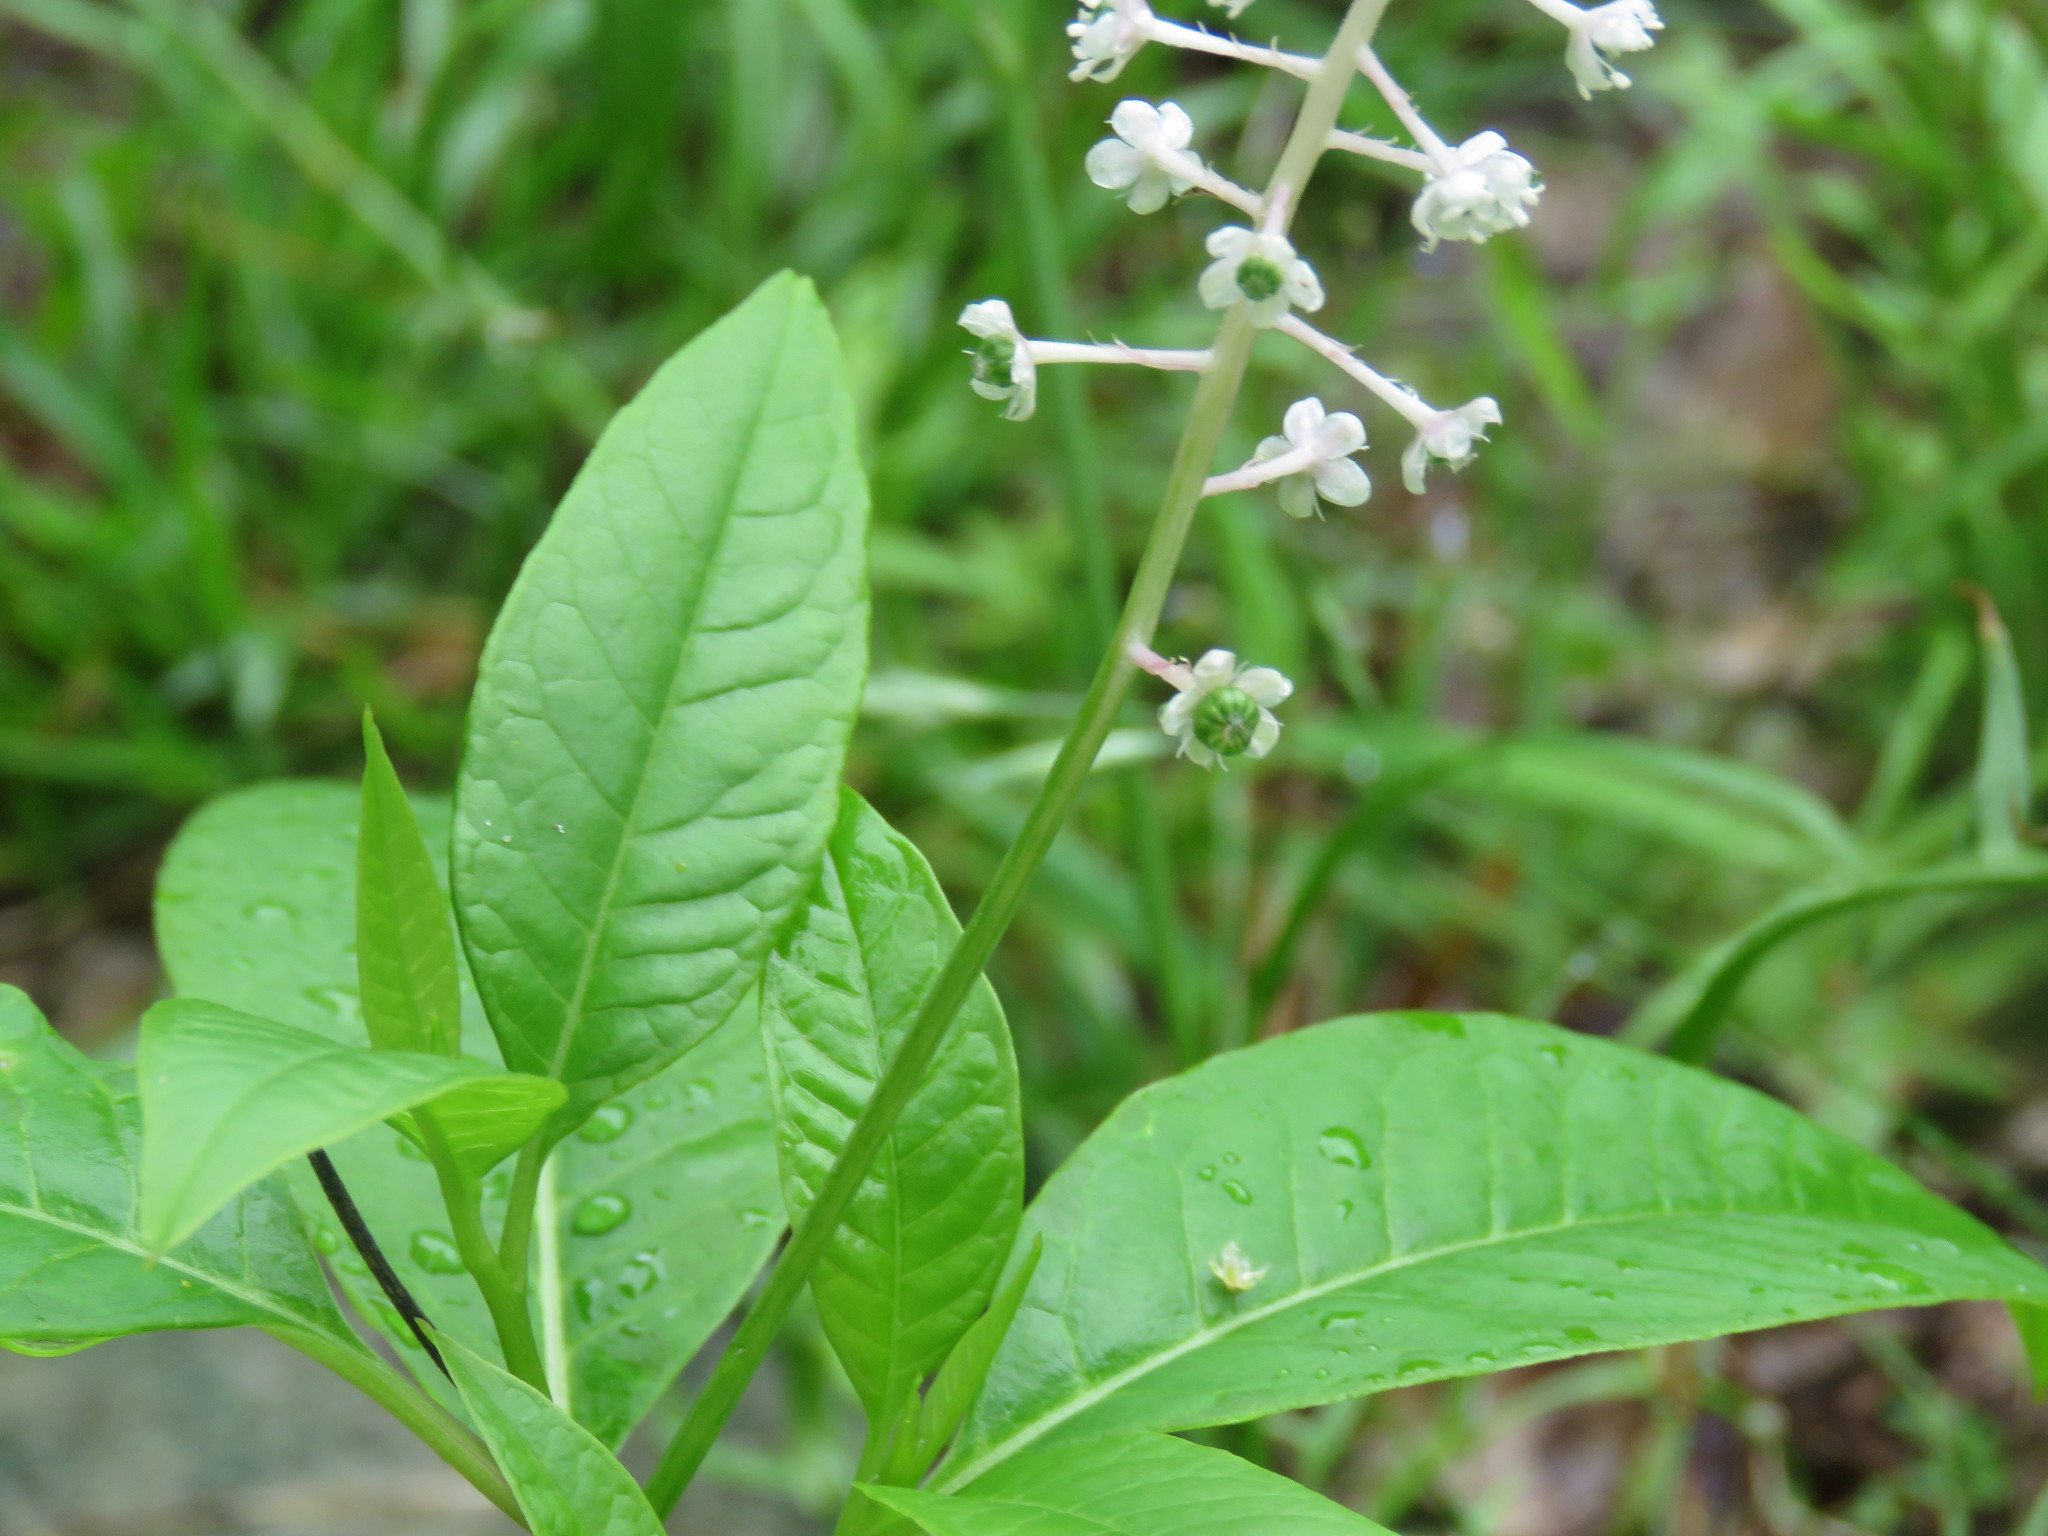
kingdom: Plantae
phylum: Tracheophyta
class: Magnoliopsida
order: Caryophyllales
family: Phytolaccaceae
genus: Phytolacca
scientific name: Phytolacca americana
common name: American pokeweed
